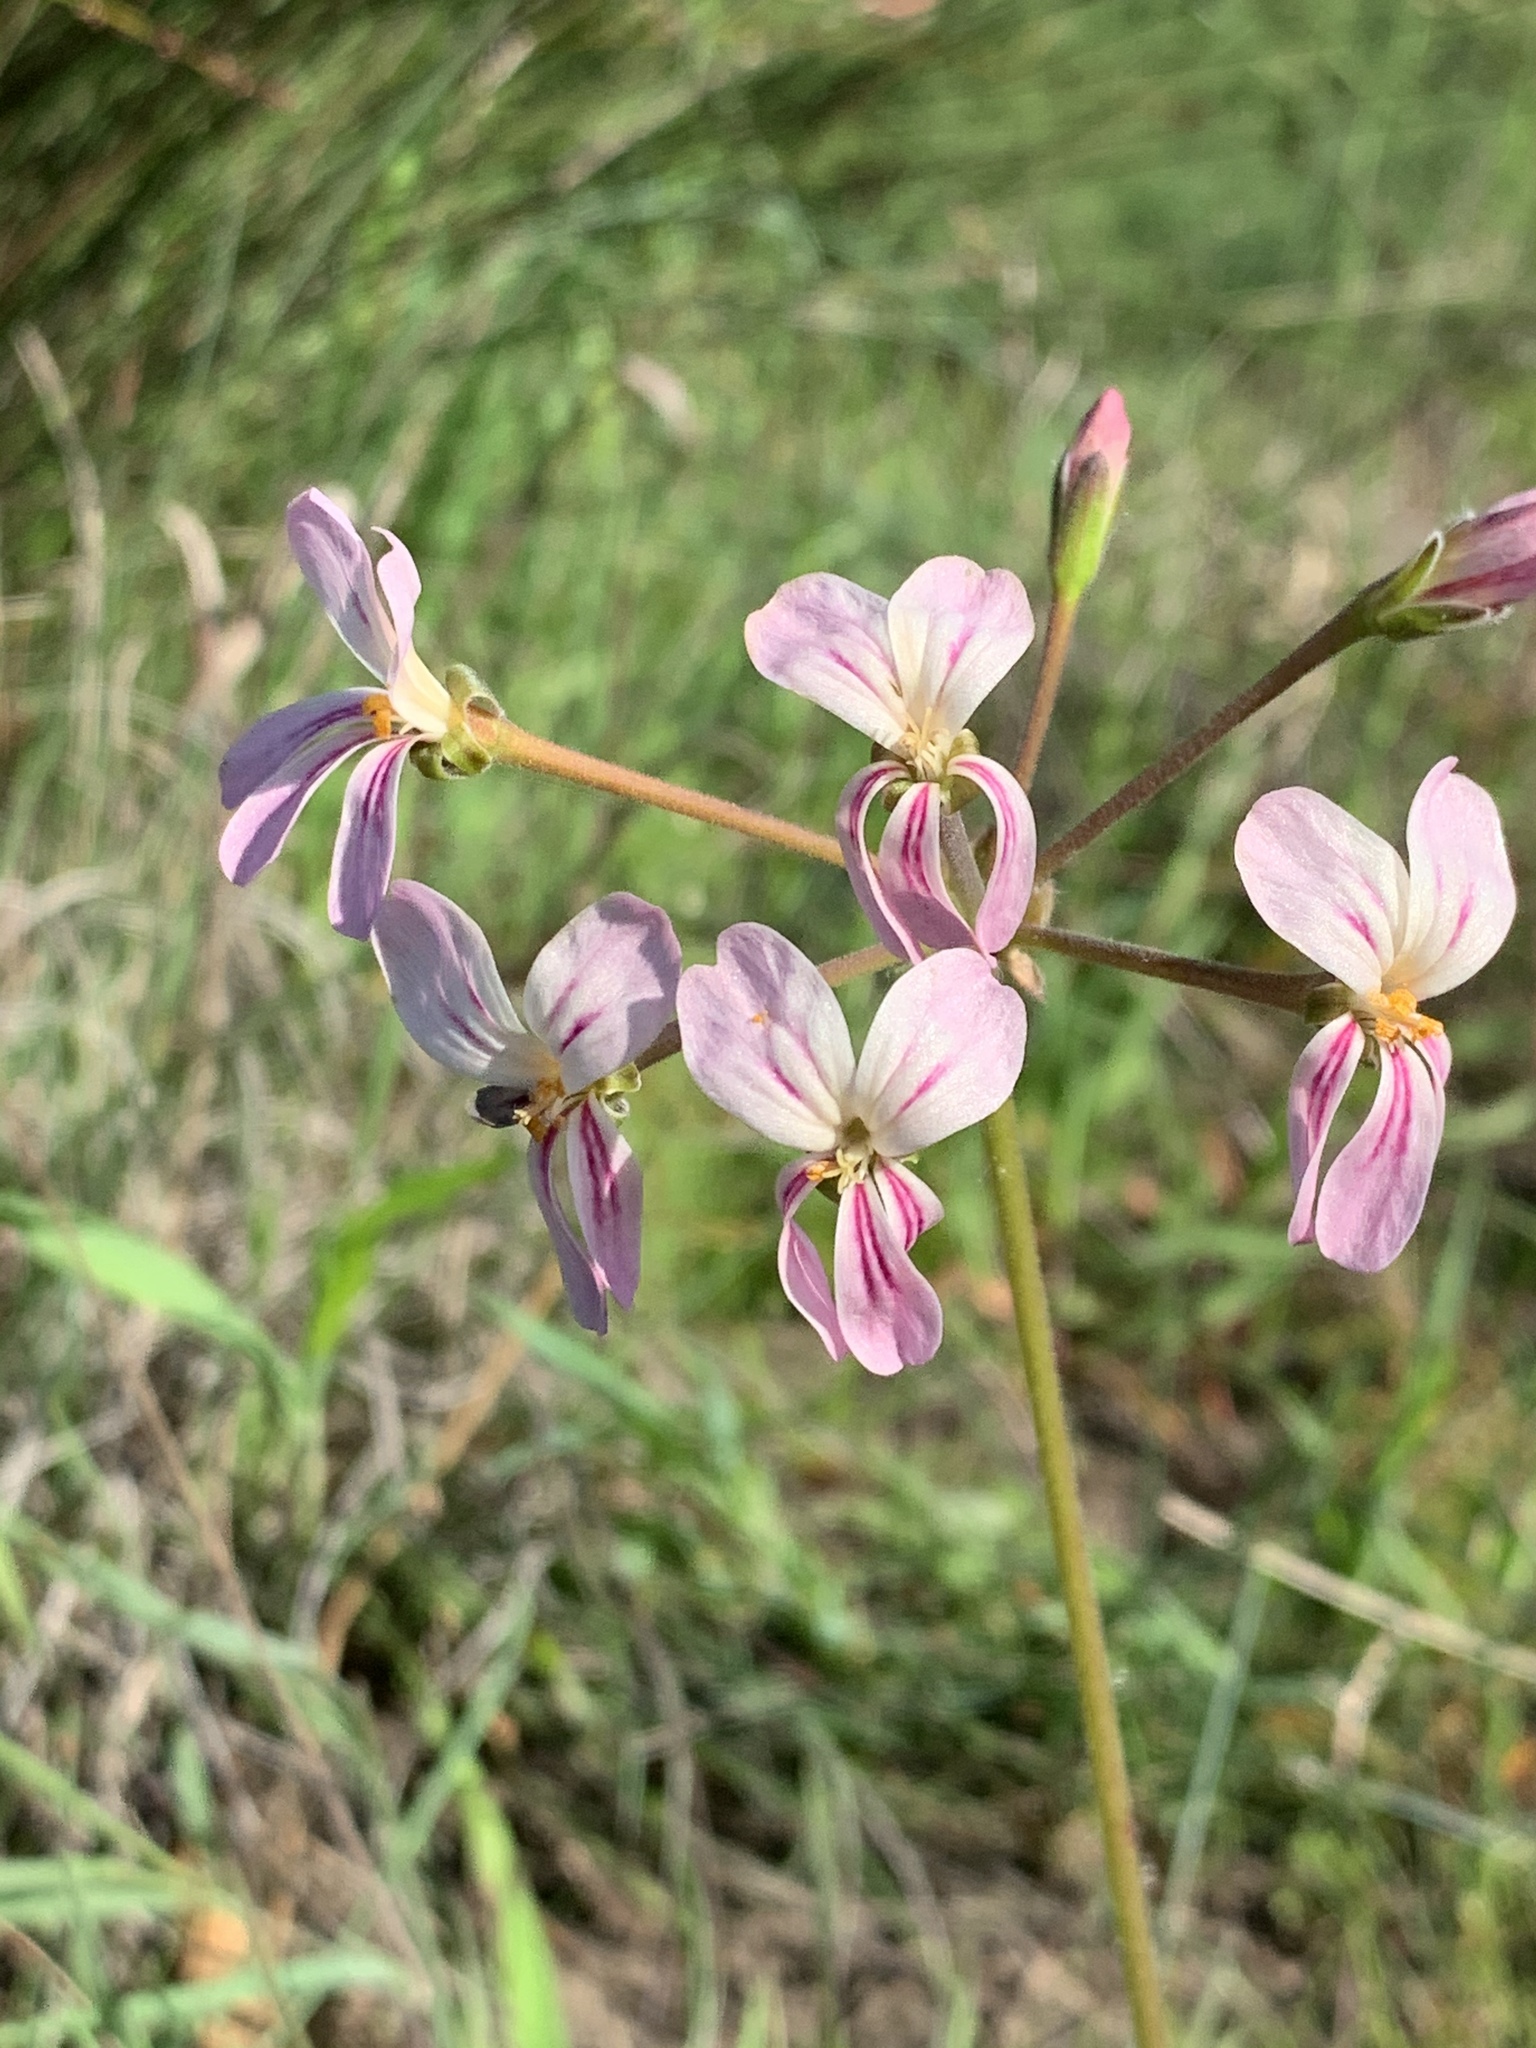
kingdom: Plantae
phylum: Tracheophyta
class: Magnoliopsida
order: Geraniales
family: Geraniaceae
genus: Pelargonium
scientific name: Pelargonium triste
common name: Night-scent pelargonium
